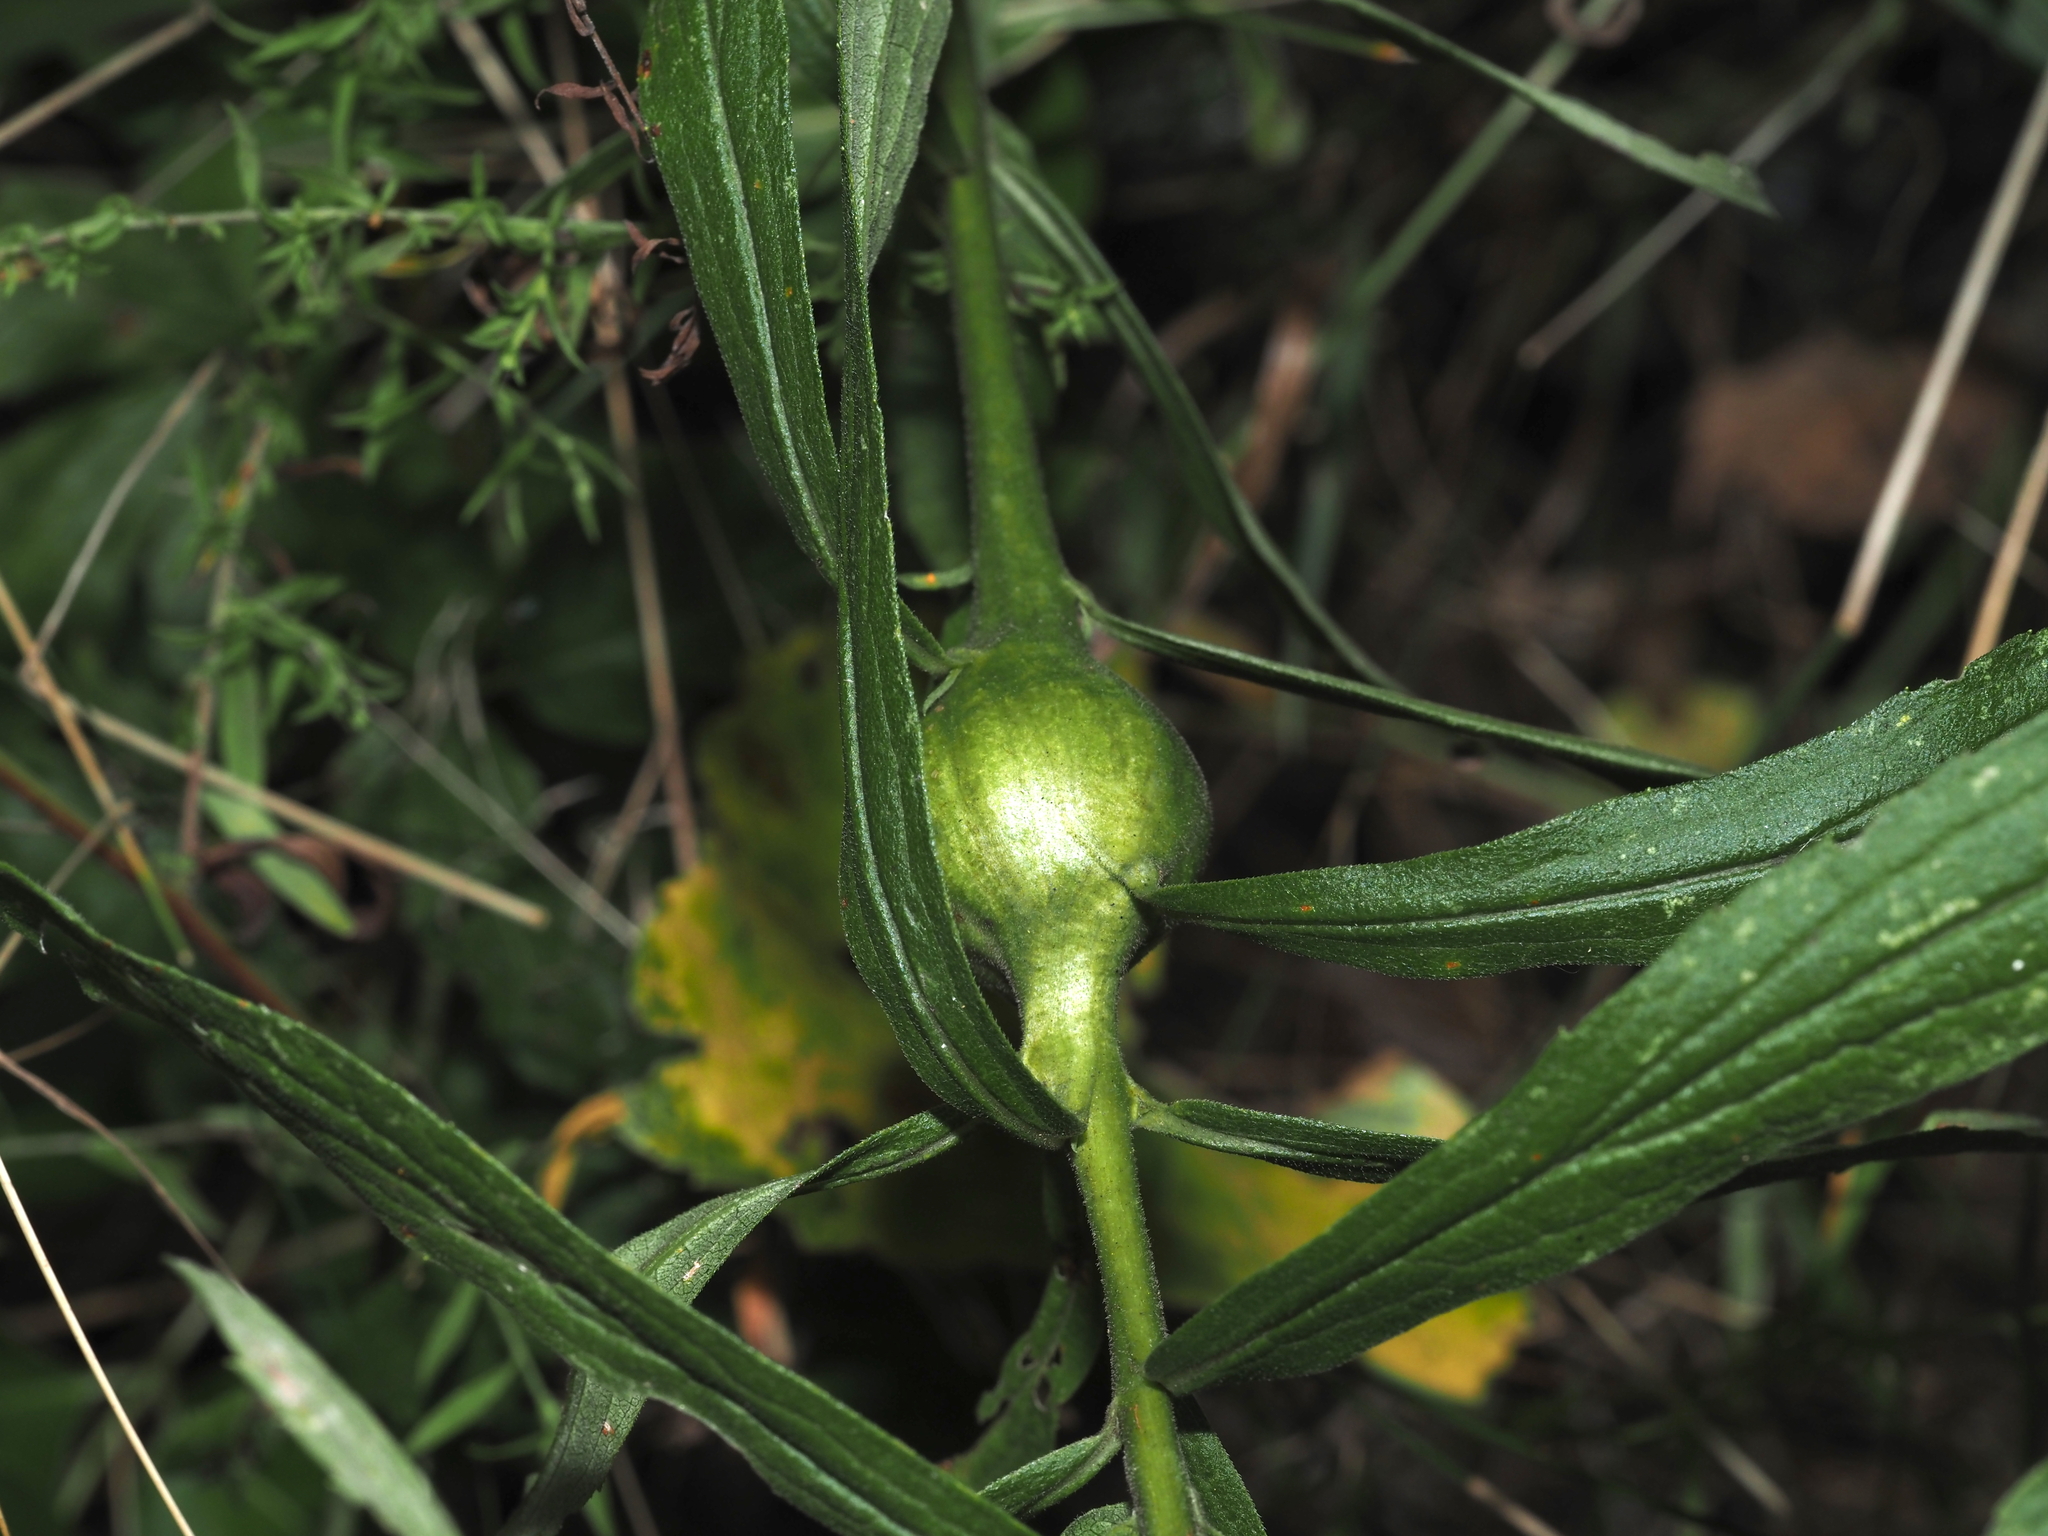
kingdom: Animalia
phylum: Arthropoda
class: Insecta
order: Diptera
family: Tephritidae
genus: Eurosta
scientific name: Eurosta solidaginis
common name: Goldenrod gall fly
